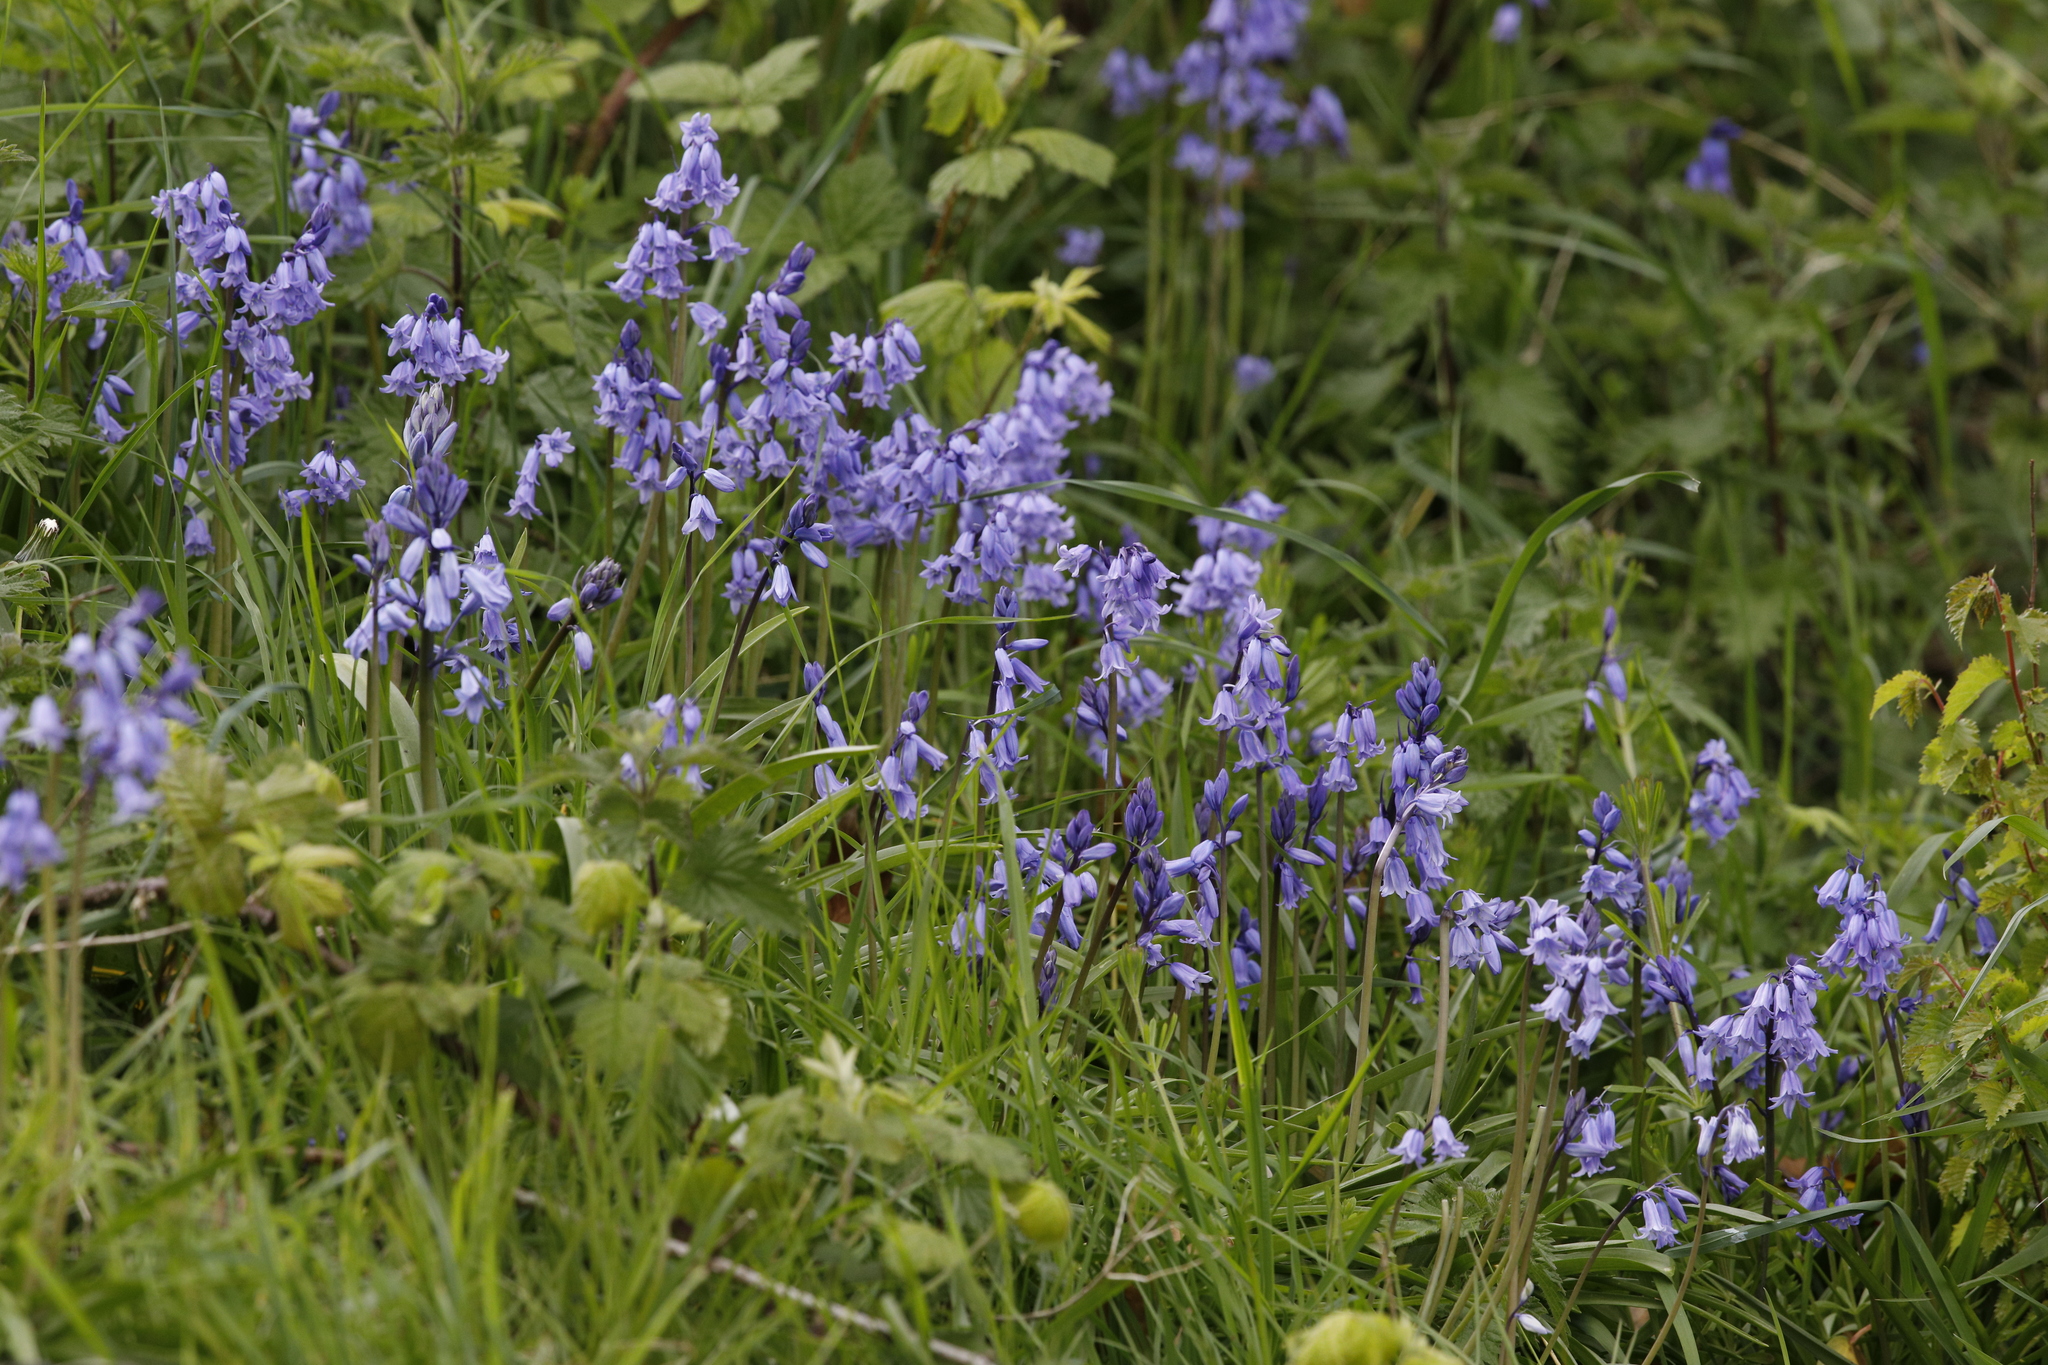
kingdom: Plantae
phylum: Tracheophyta
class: Liliopsida
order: Asparagales
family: Asparagaceae
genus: Hyacinthoides
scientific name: Hyacinthoides non-scripta
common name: Bluebell
